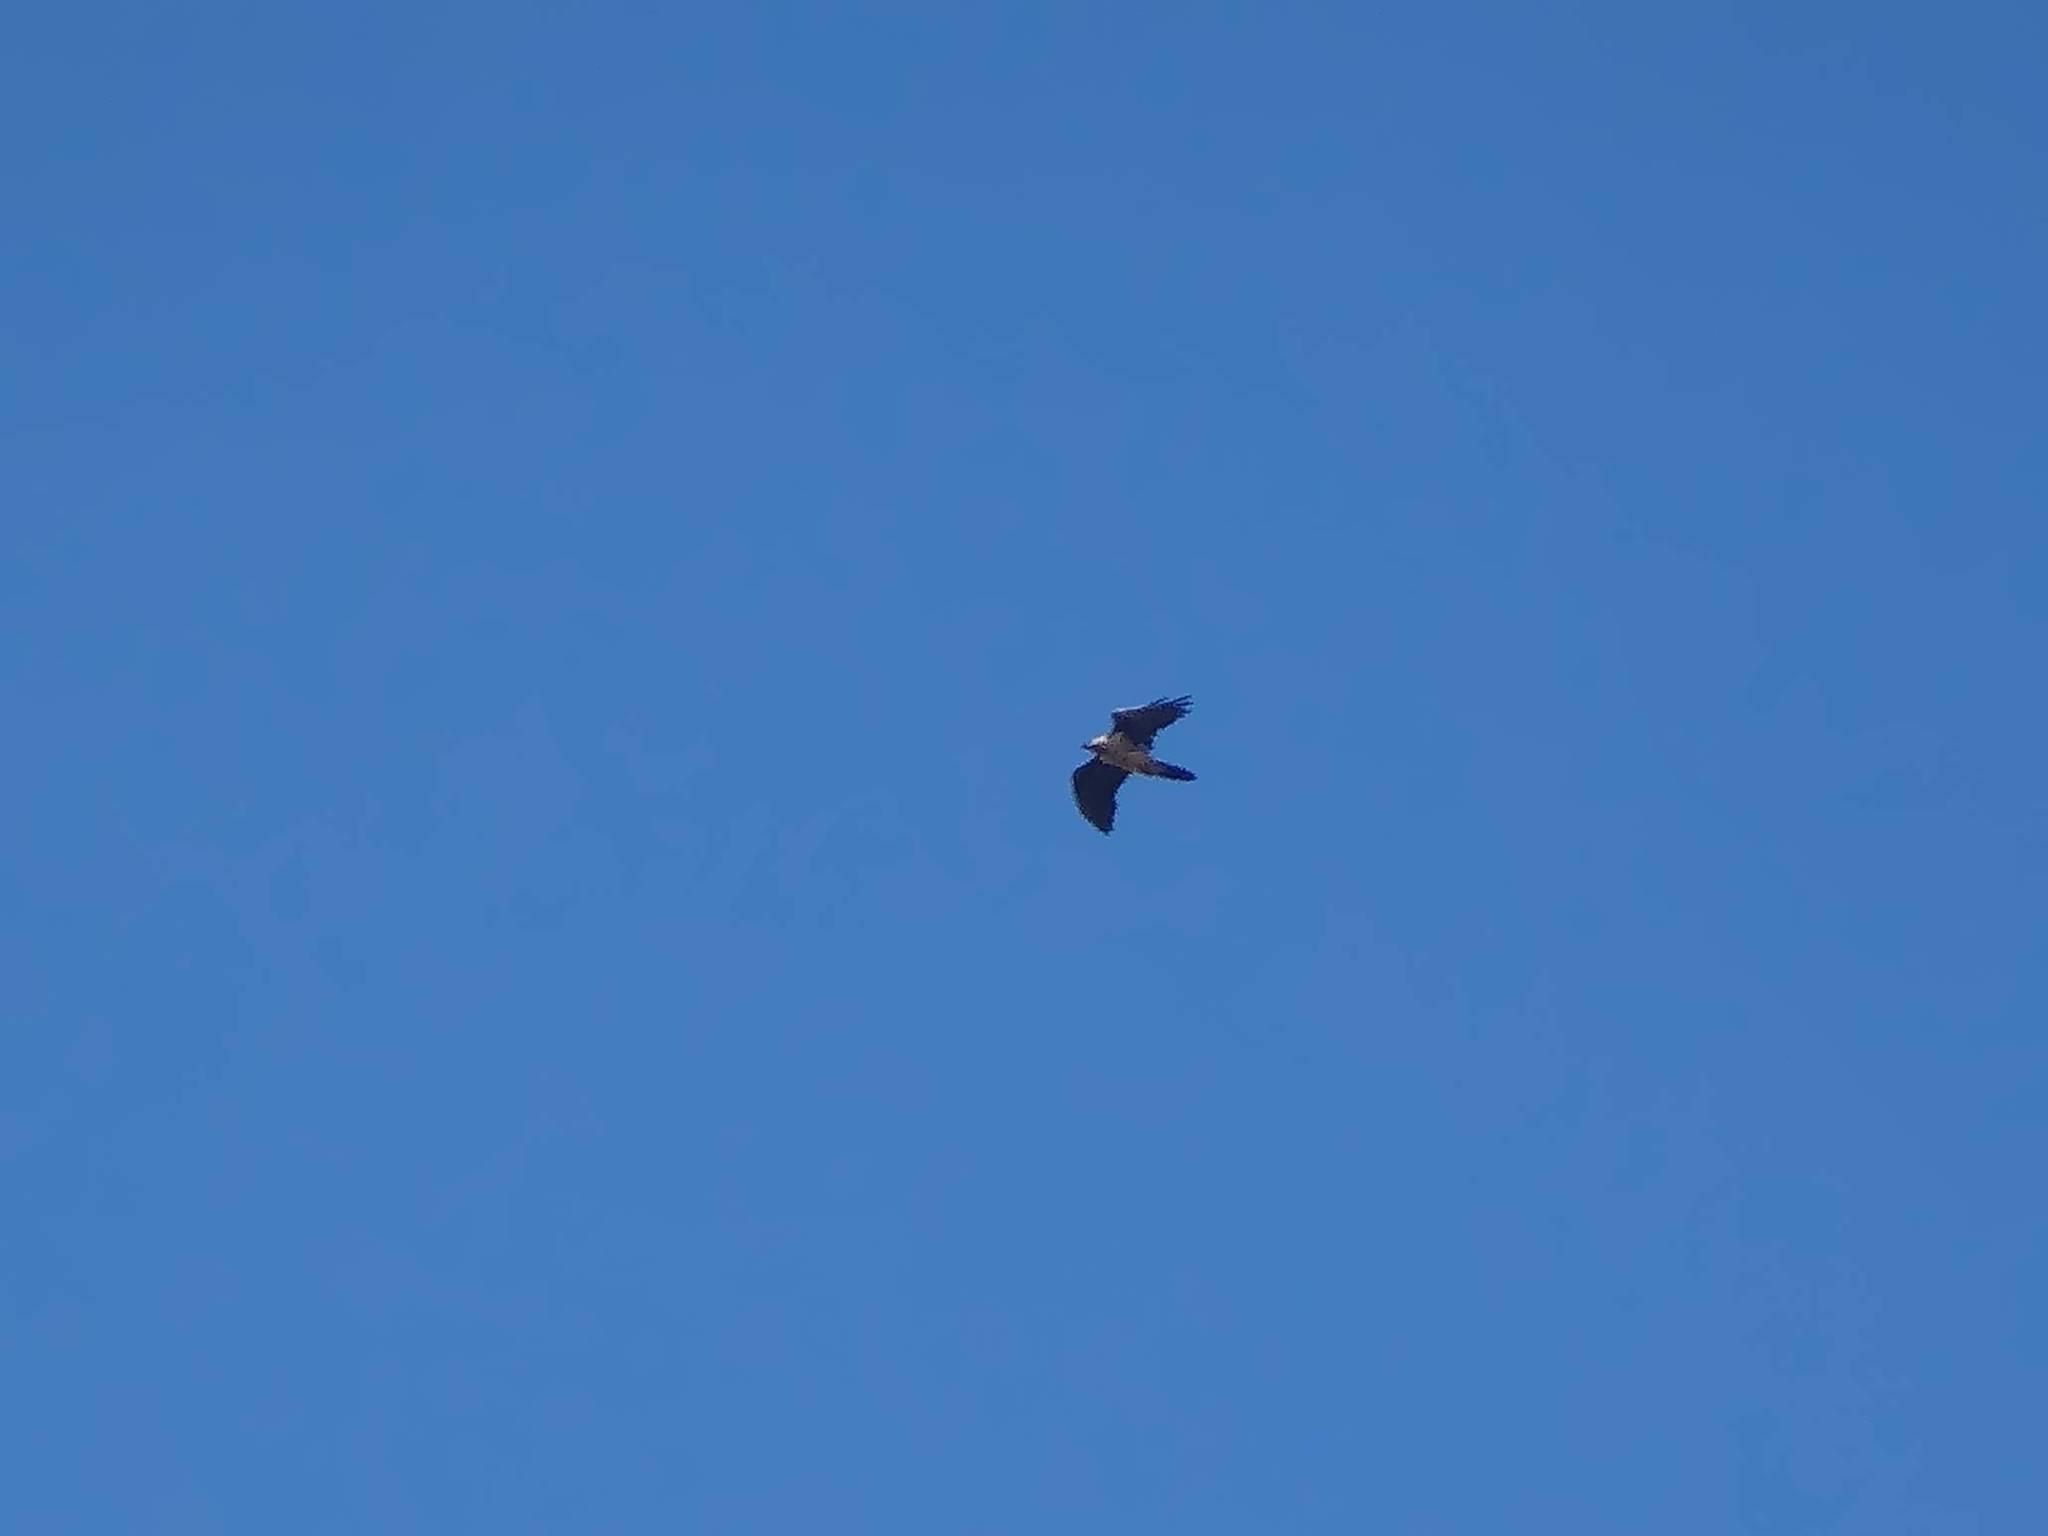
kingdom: Animalia
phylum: Chordata
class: Aves
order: Accipitriformes
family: Accipitridae
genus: Gypaetus
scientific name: Gypaetus barbatus
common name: Bearded vulture
